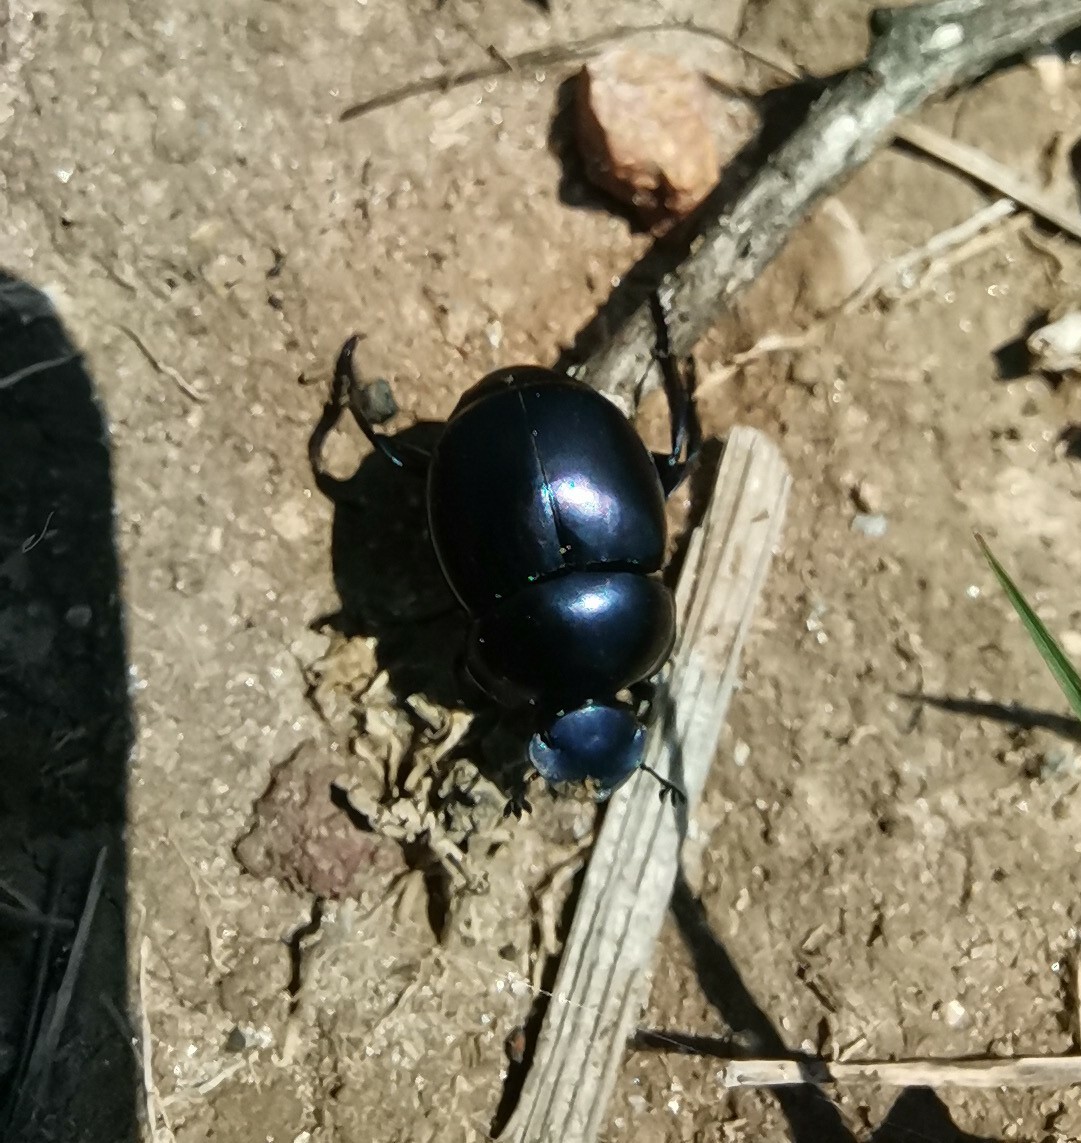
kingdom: Animalia
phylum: Arthropoda
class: Insecta
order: Coleoptera
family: Scarabaeidae
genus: Canthon
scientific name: Canthon humectus
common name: Tumblebug
